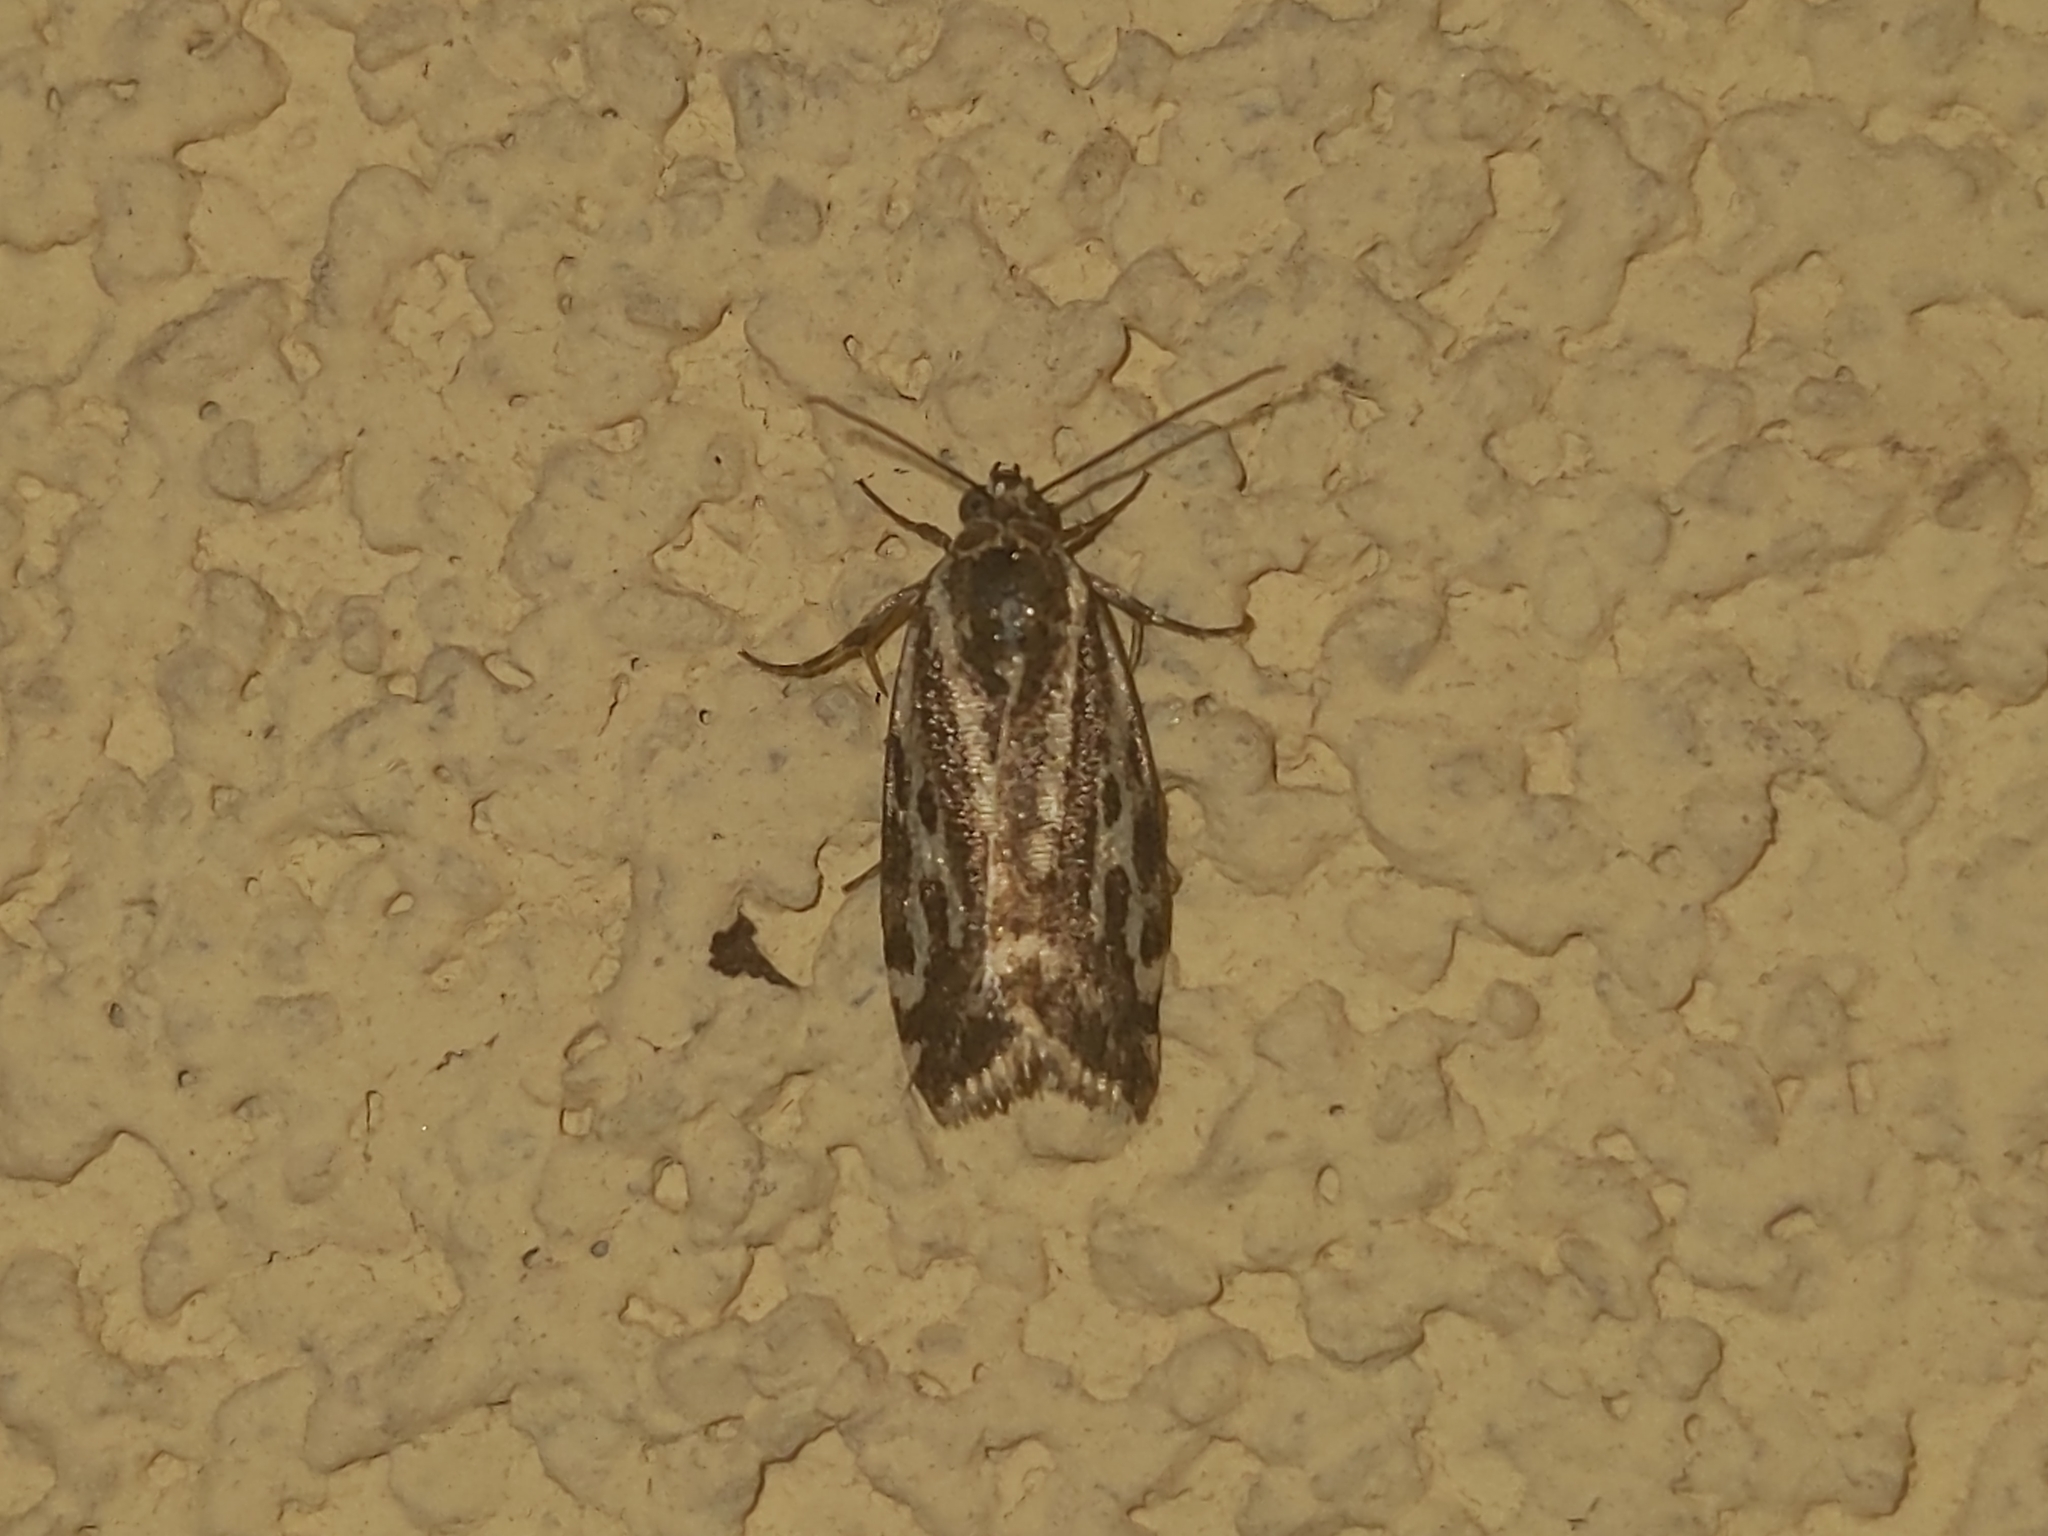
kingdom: Animalia
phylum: Arthropoda
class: Insecta
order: Lepidoptera
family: Noctuidae
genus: Acontia
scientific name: Acontia trabealis
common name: Spotted sulphur
